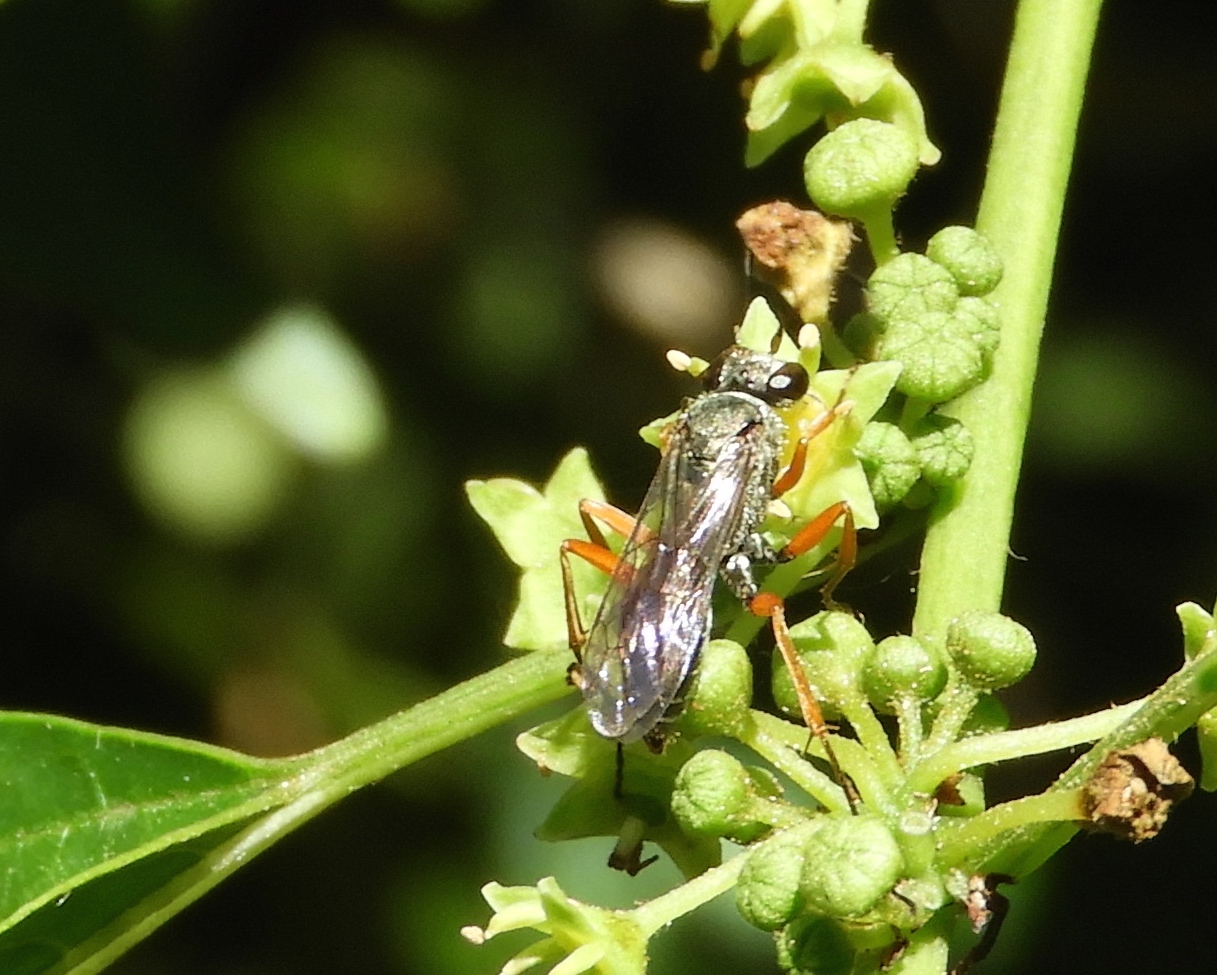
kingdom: Animalia
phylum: Arthropoda
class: Insecta
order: Hymenoptera
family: Pompilidae
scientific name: Pompilidae
